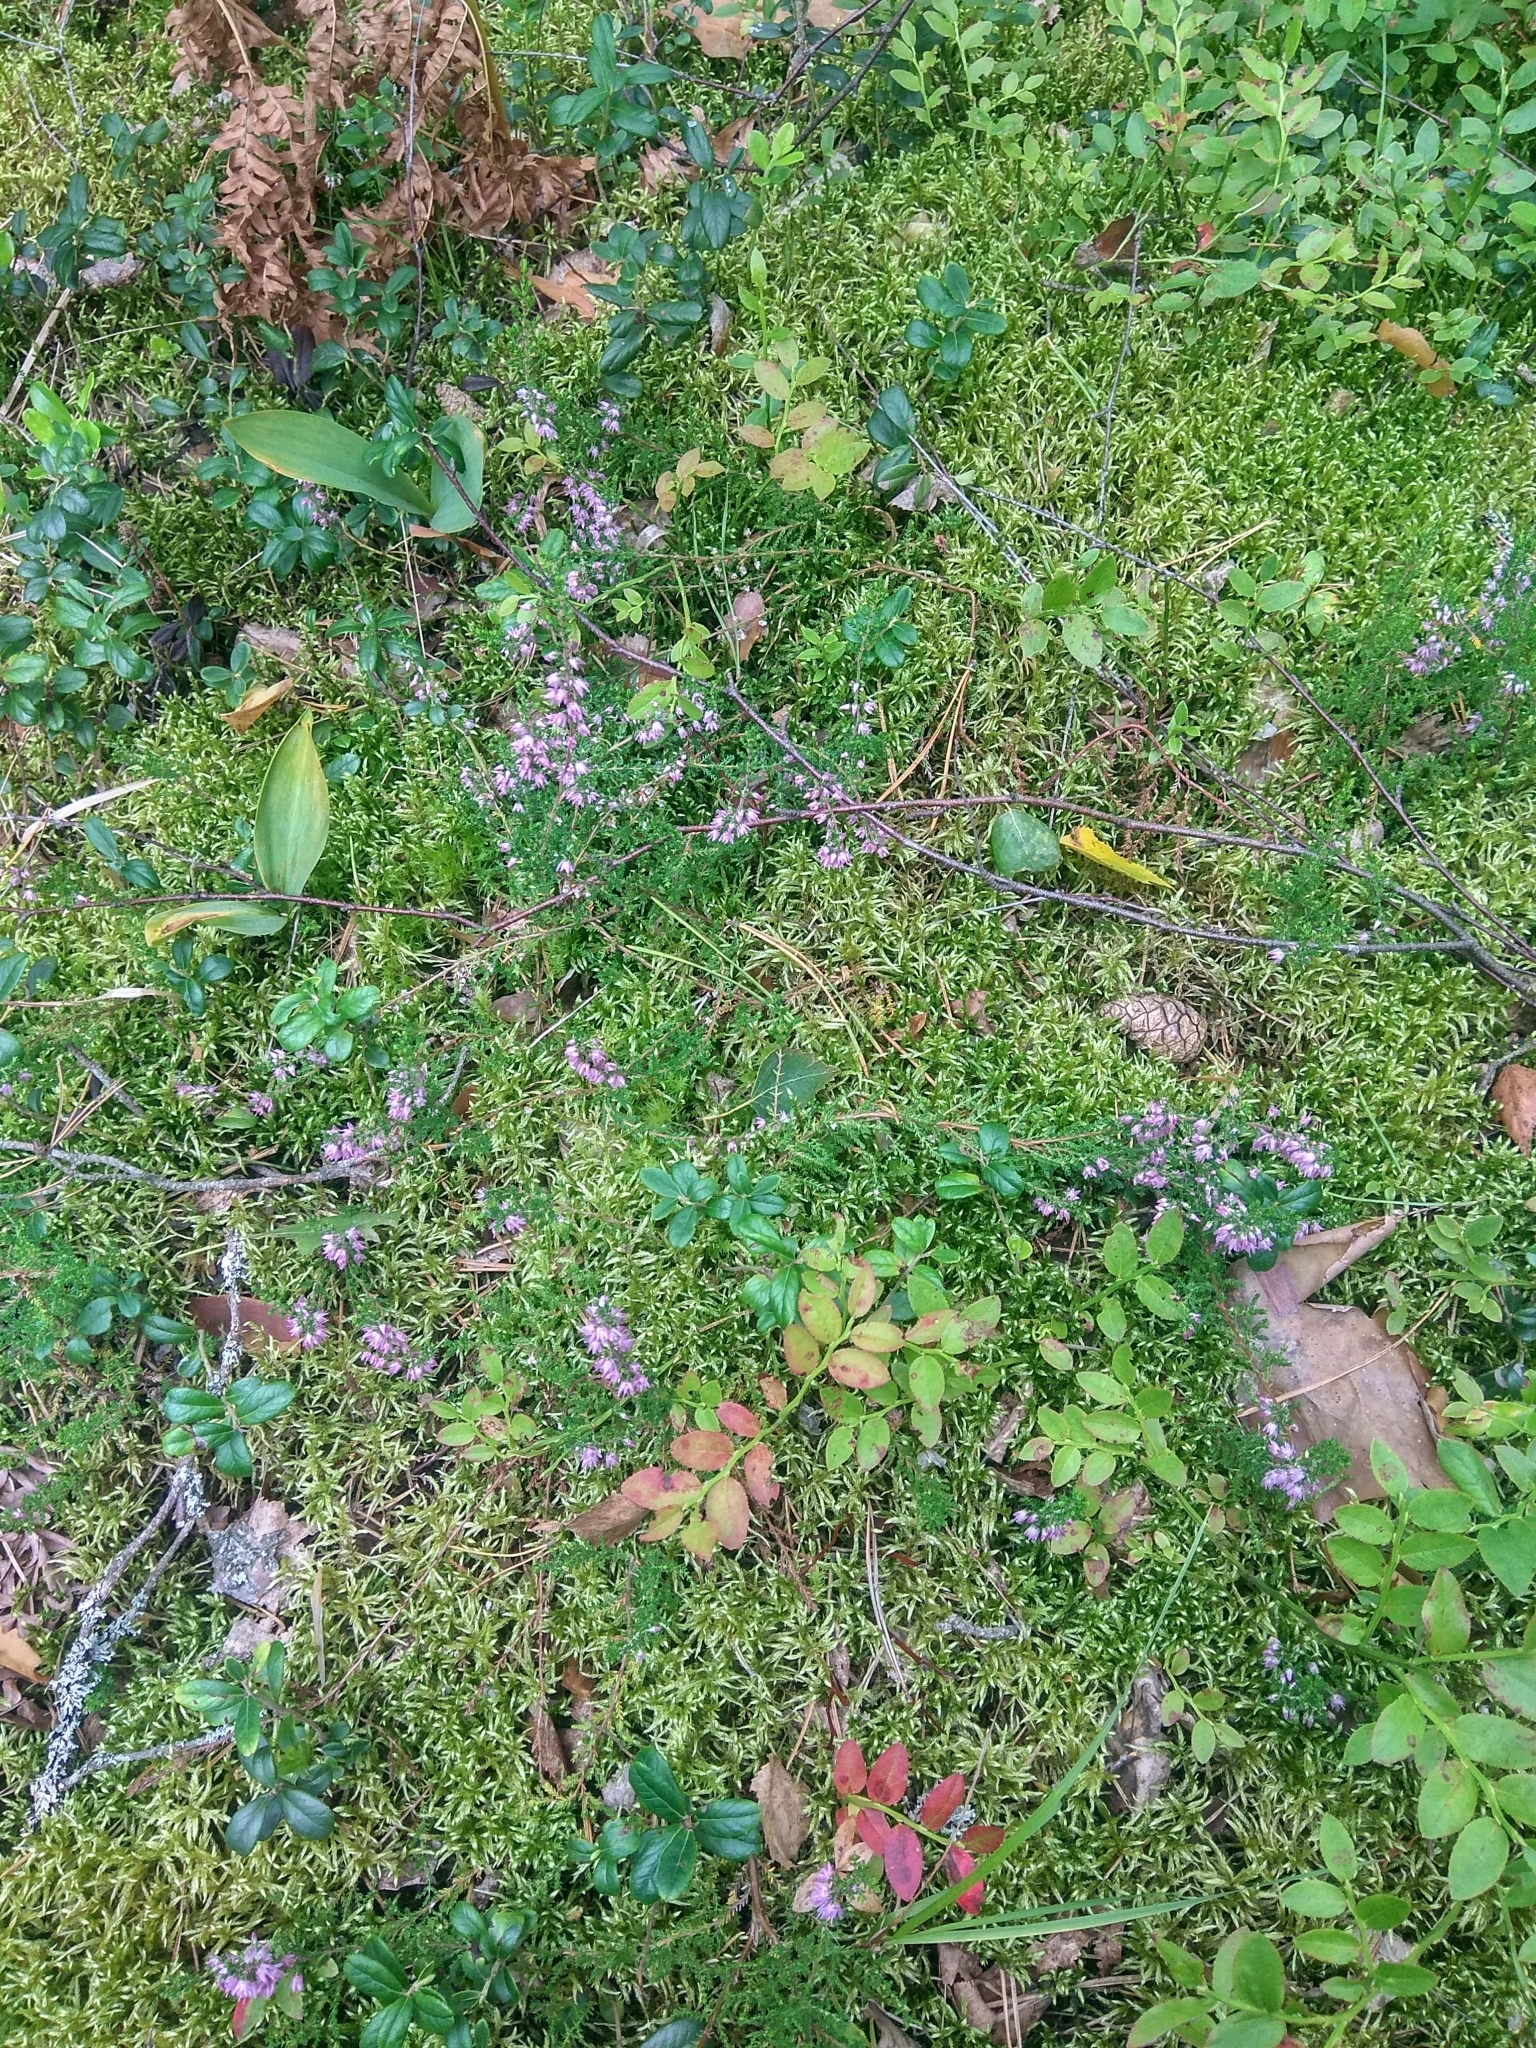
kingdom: Plantae
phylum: Tracheophyta
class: Magnoliopsida
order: Ericales
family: Ericaceae
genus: Calluna
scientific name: Calluna vulgaris
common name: Heather
